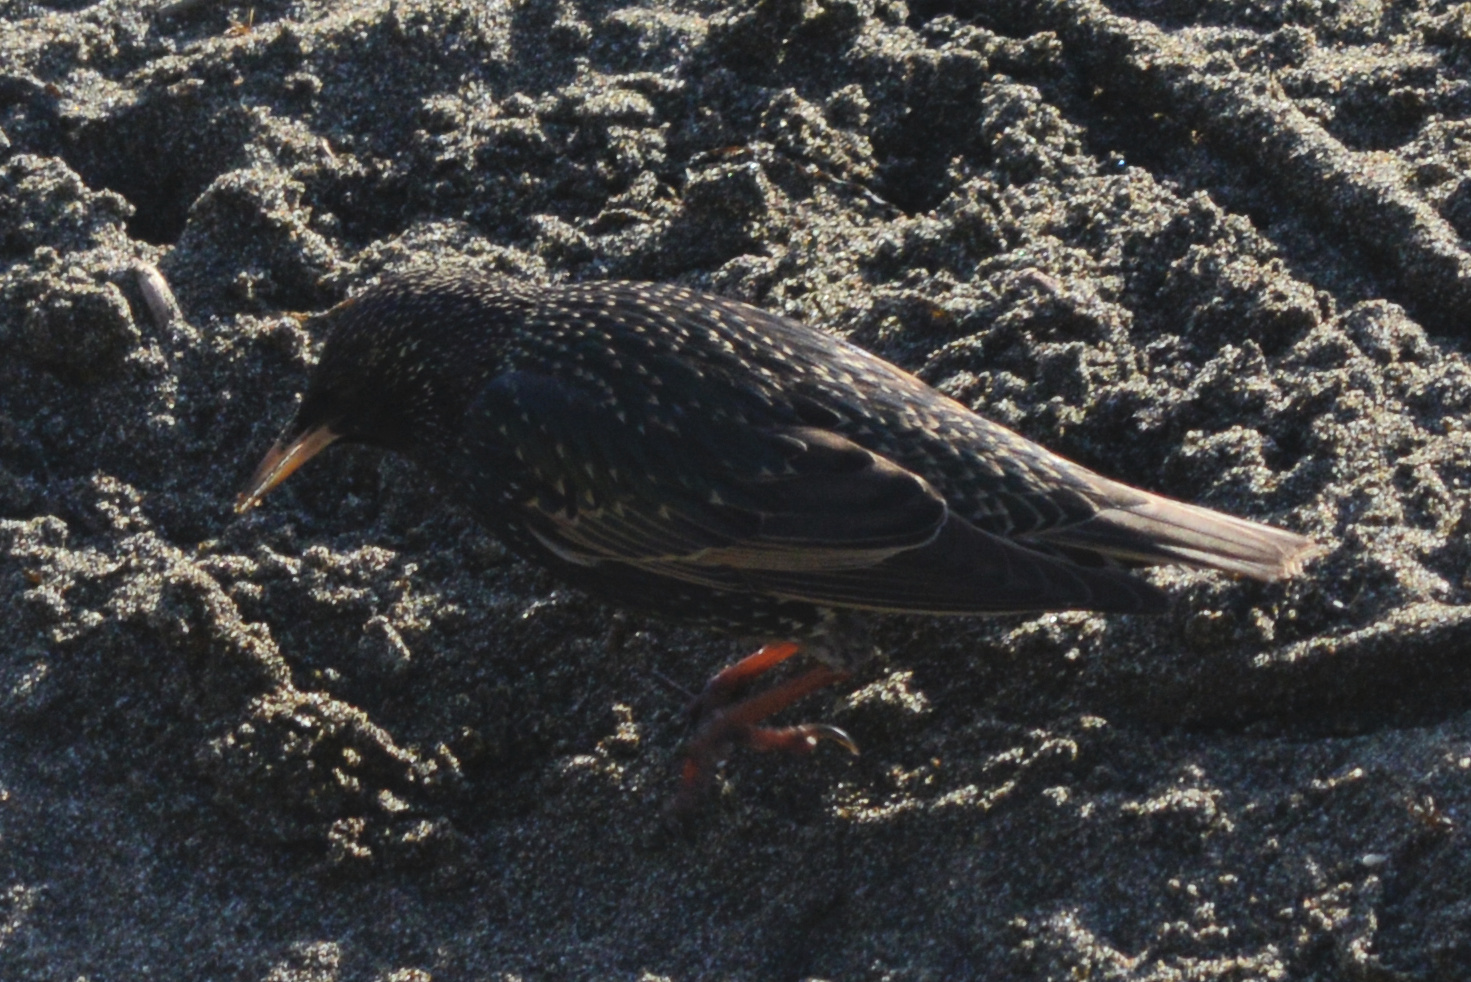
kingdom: Animalia
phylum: Chordata
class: Aves
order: Passeriformes
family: Sturnidae
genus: Sturnus
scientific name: Sturnus vulgaris
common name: Common starling
